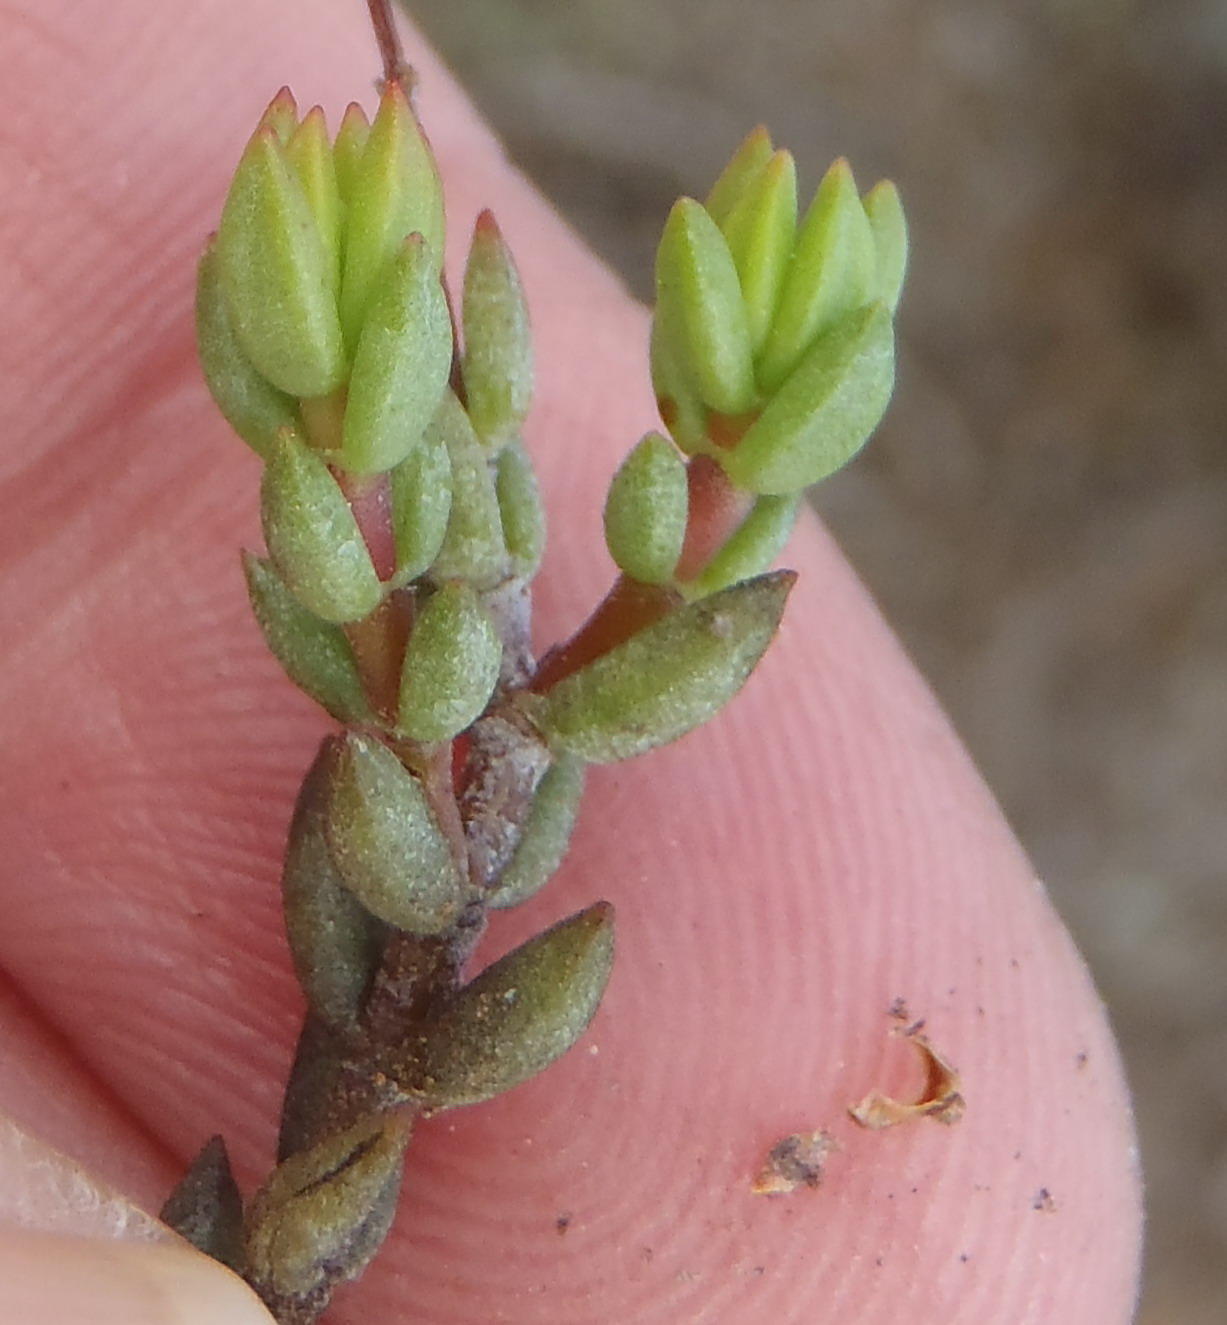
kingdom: Plantae
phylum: Tracheophyta
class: Magnoliopsida
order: Saxifragales
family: Crassulaceae
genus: Crassula
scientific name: Crassula biplanata
